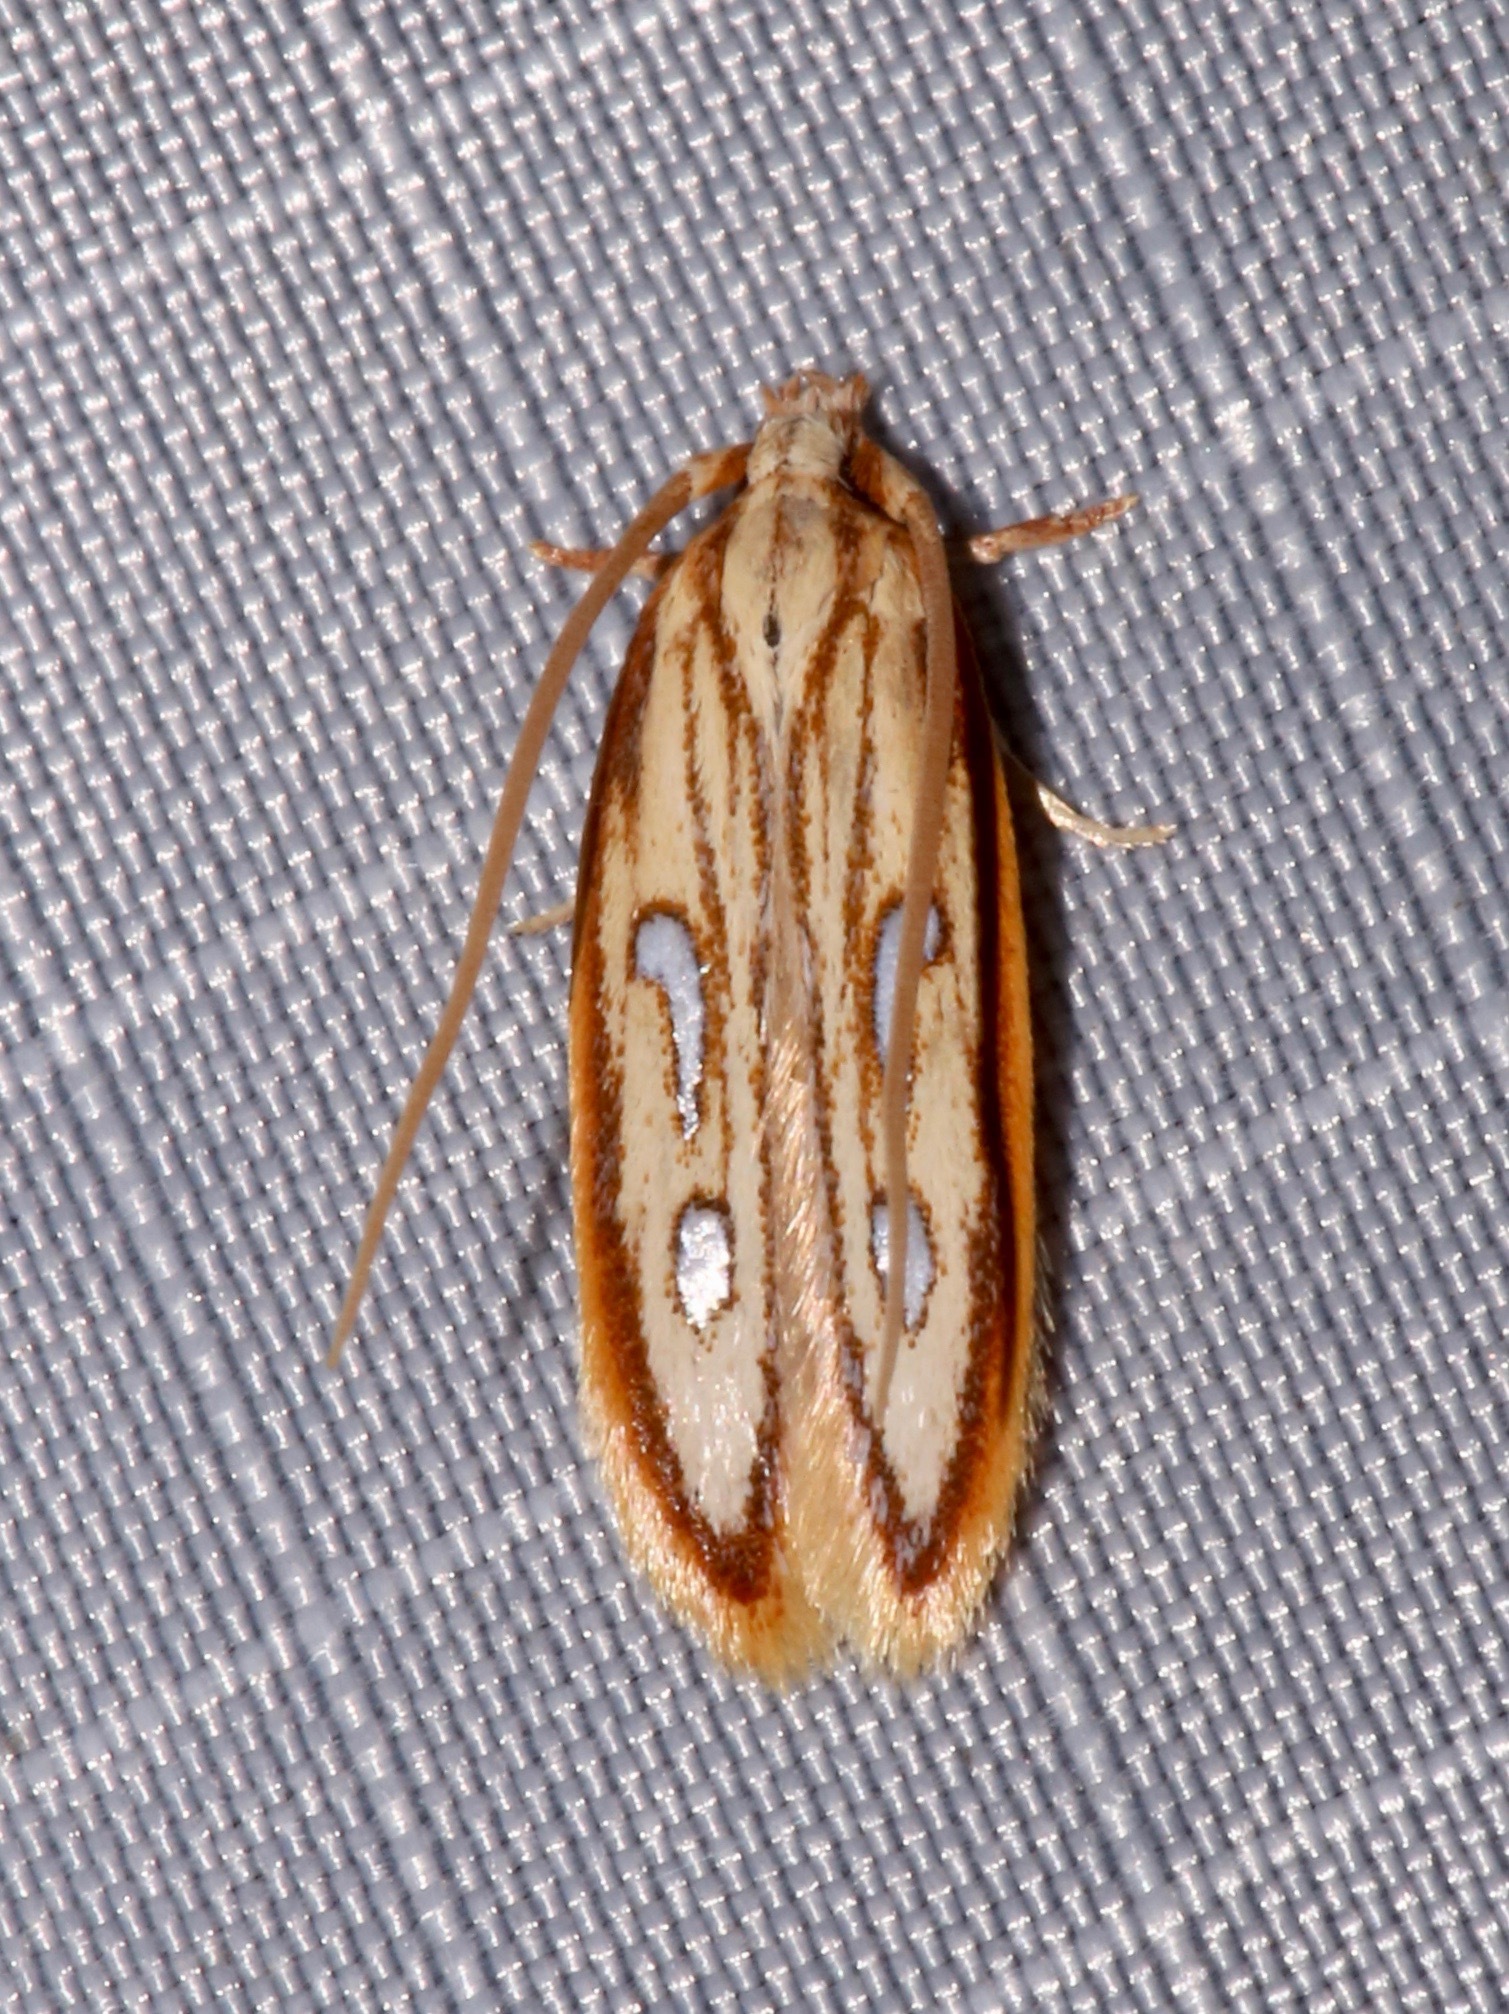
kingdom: Animalia
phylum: Arthropoda
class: Insecta
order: Lepidoptera
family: Coleophoridae
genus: Homaledra
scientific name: Homaledra heptathalama
